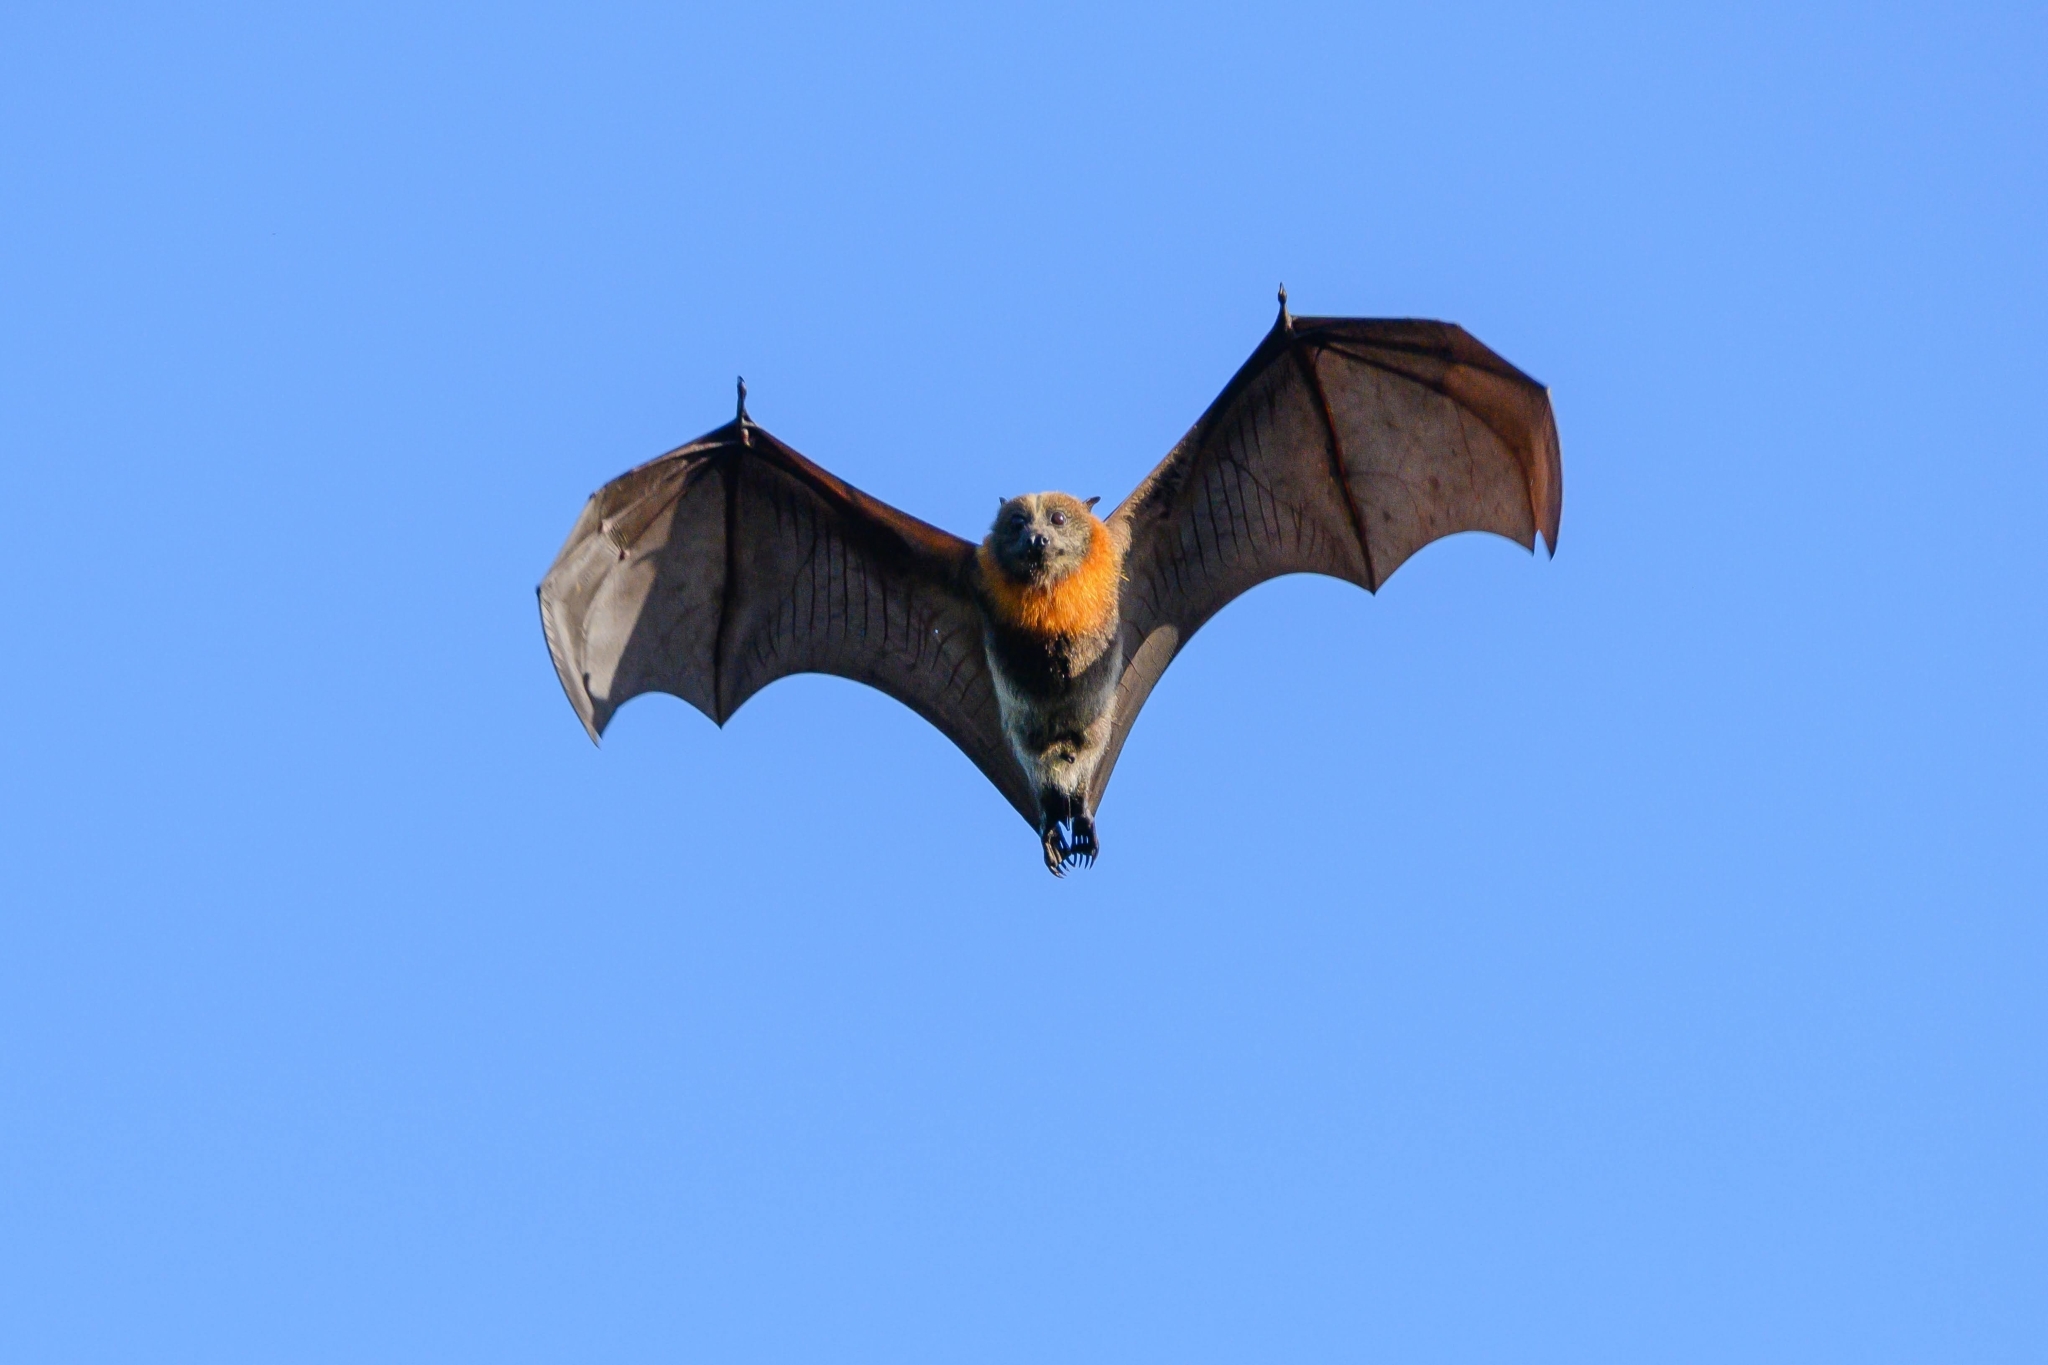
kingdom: Animalia
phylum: Chordata
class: Mammalia
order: Chiroptera
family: Pteropodidae
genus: Pteropus
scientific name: Pteropus poliocephalus
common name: Gray-headed flying fox
